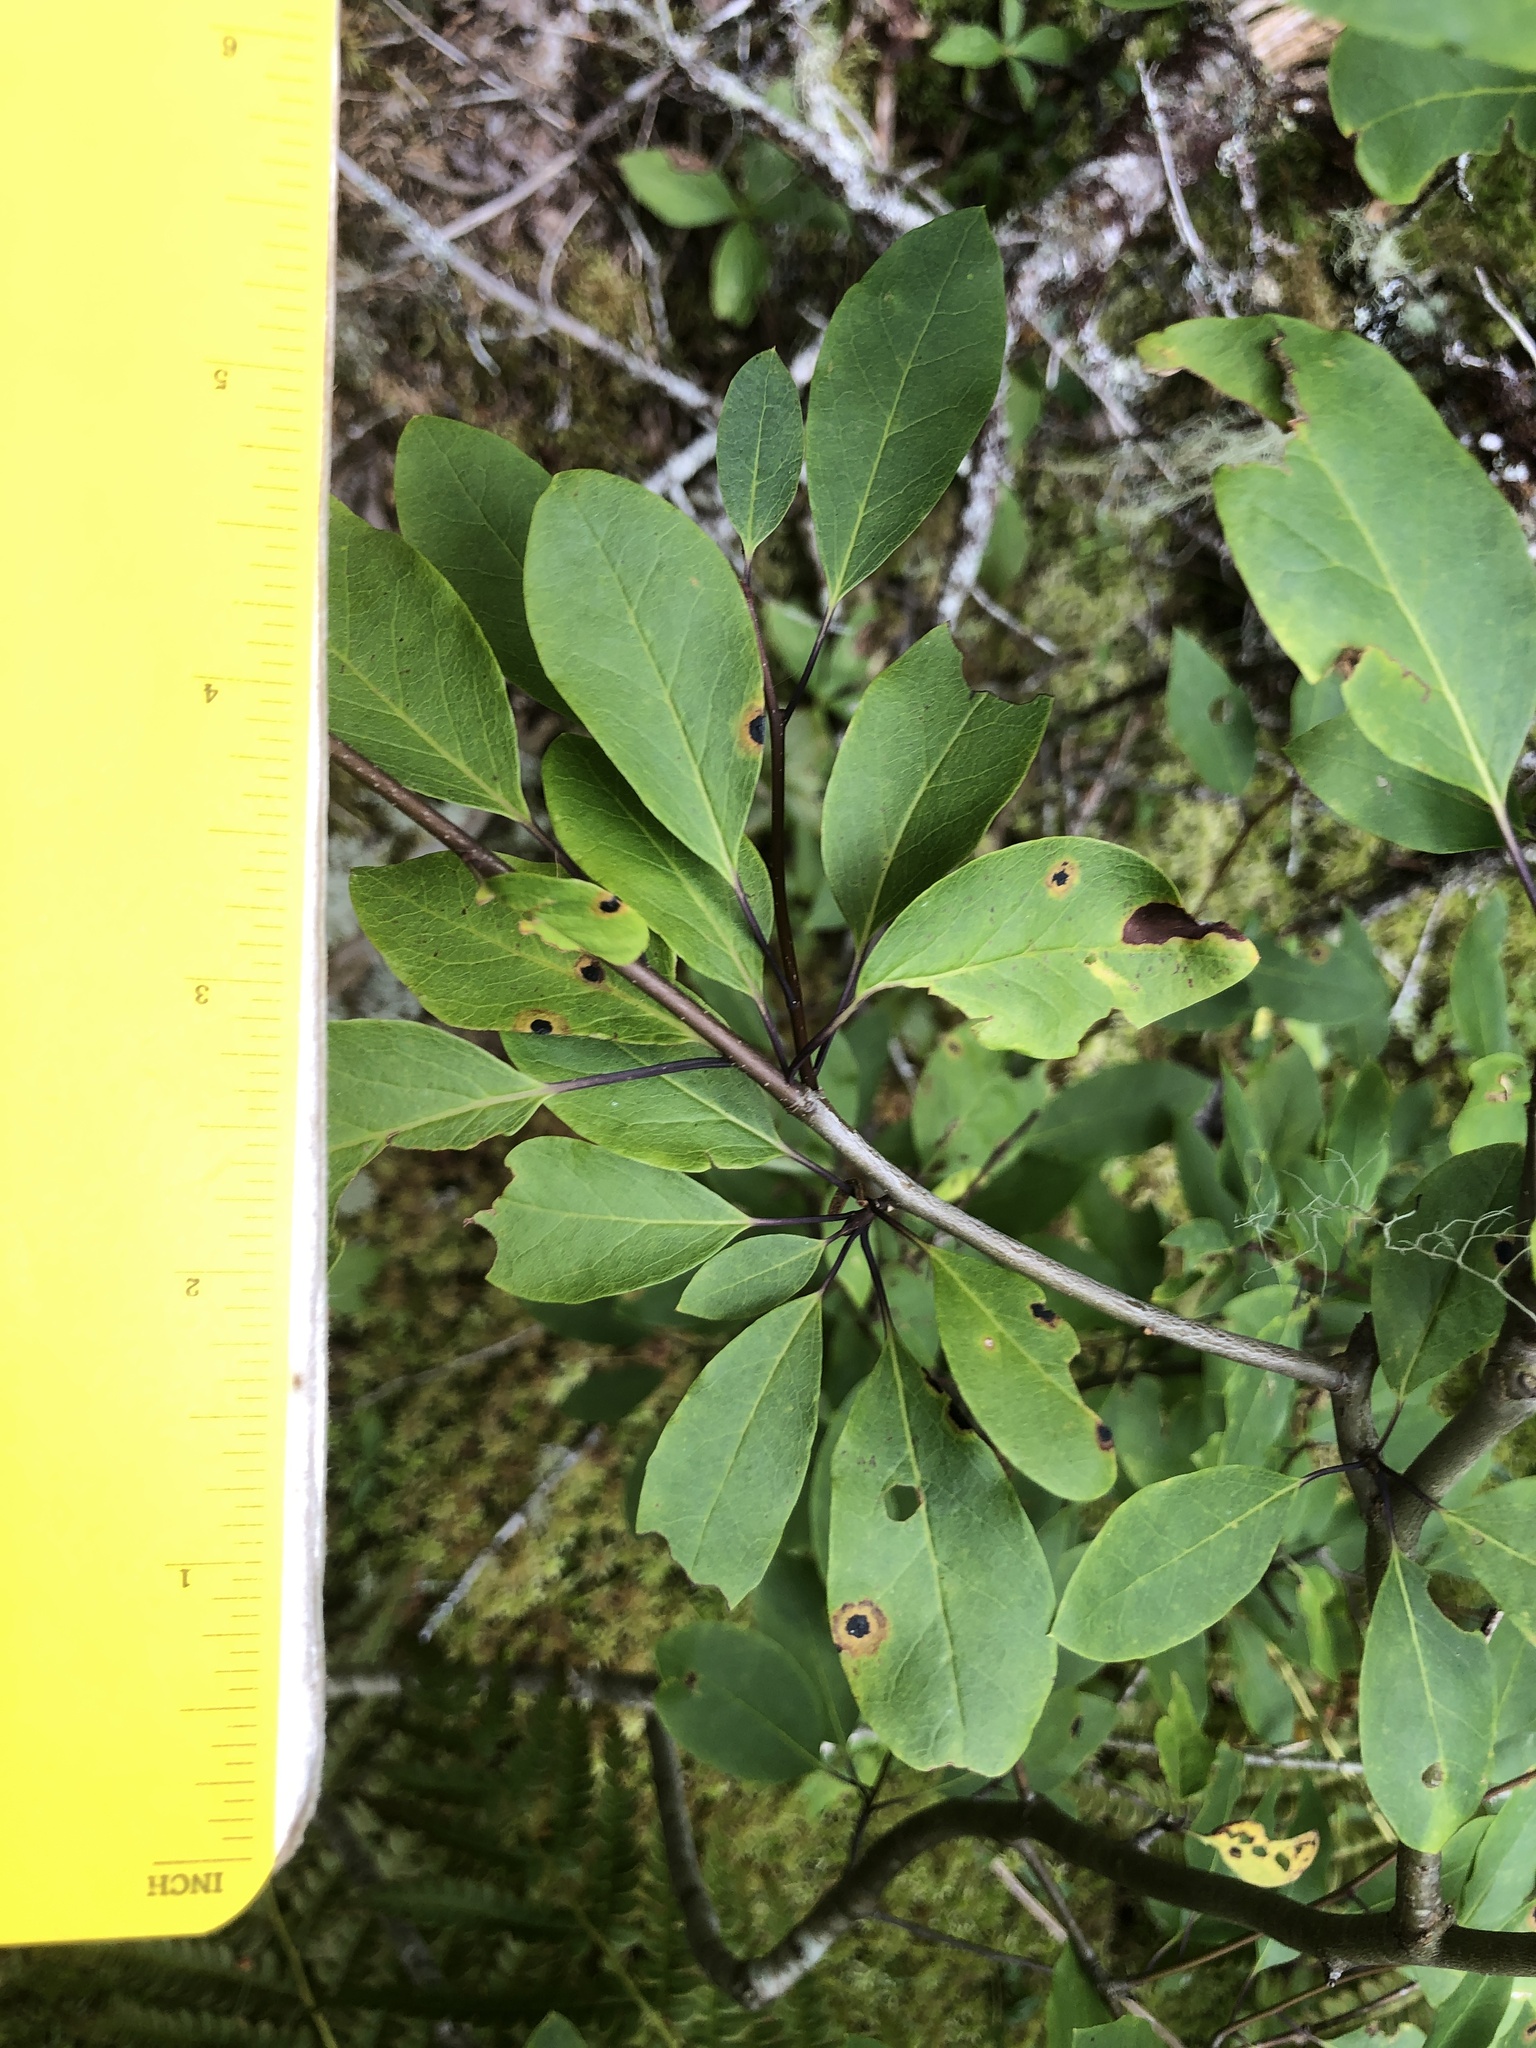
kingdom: Plantae
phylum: Tracheophyta
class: Magnoliopsida
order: Aquifoliales
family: Aquifoliaceae
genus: Ilex
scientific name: Ilex mucronata
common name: Catberry
